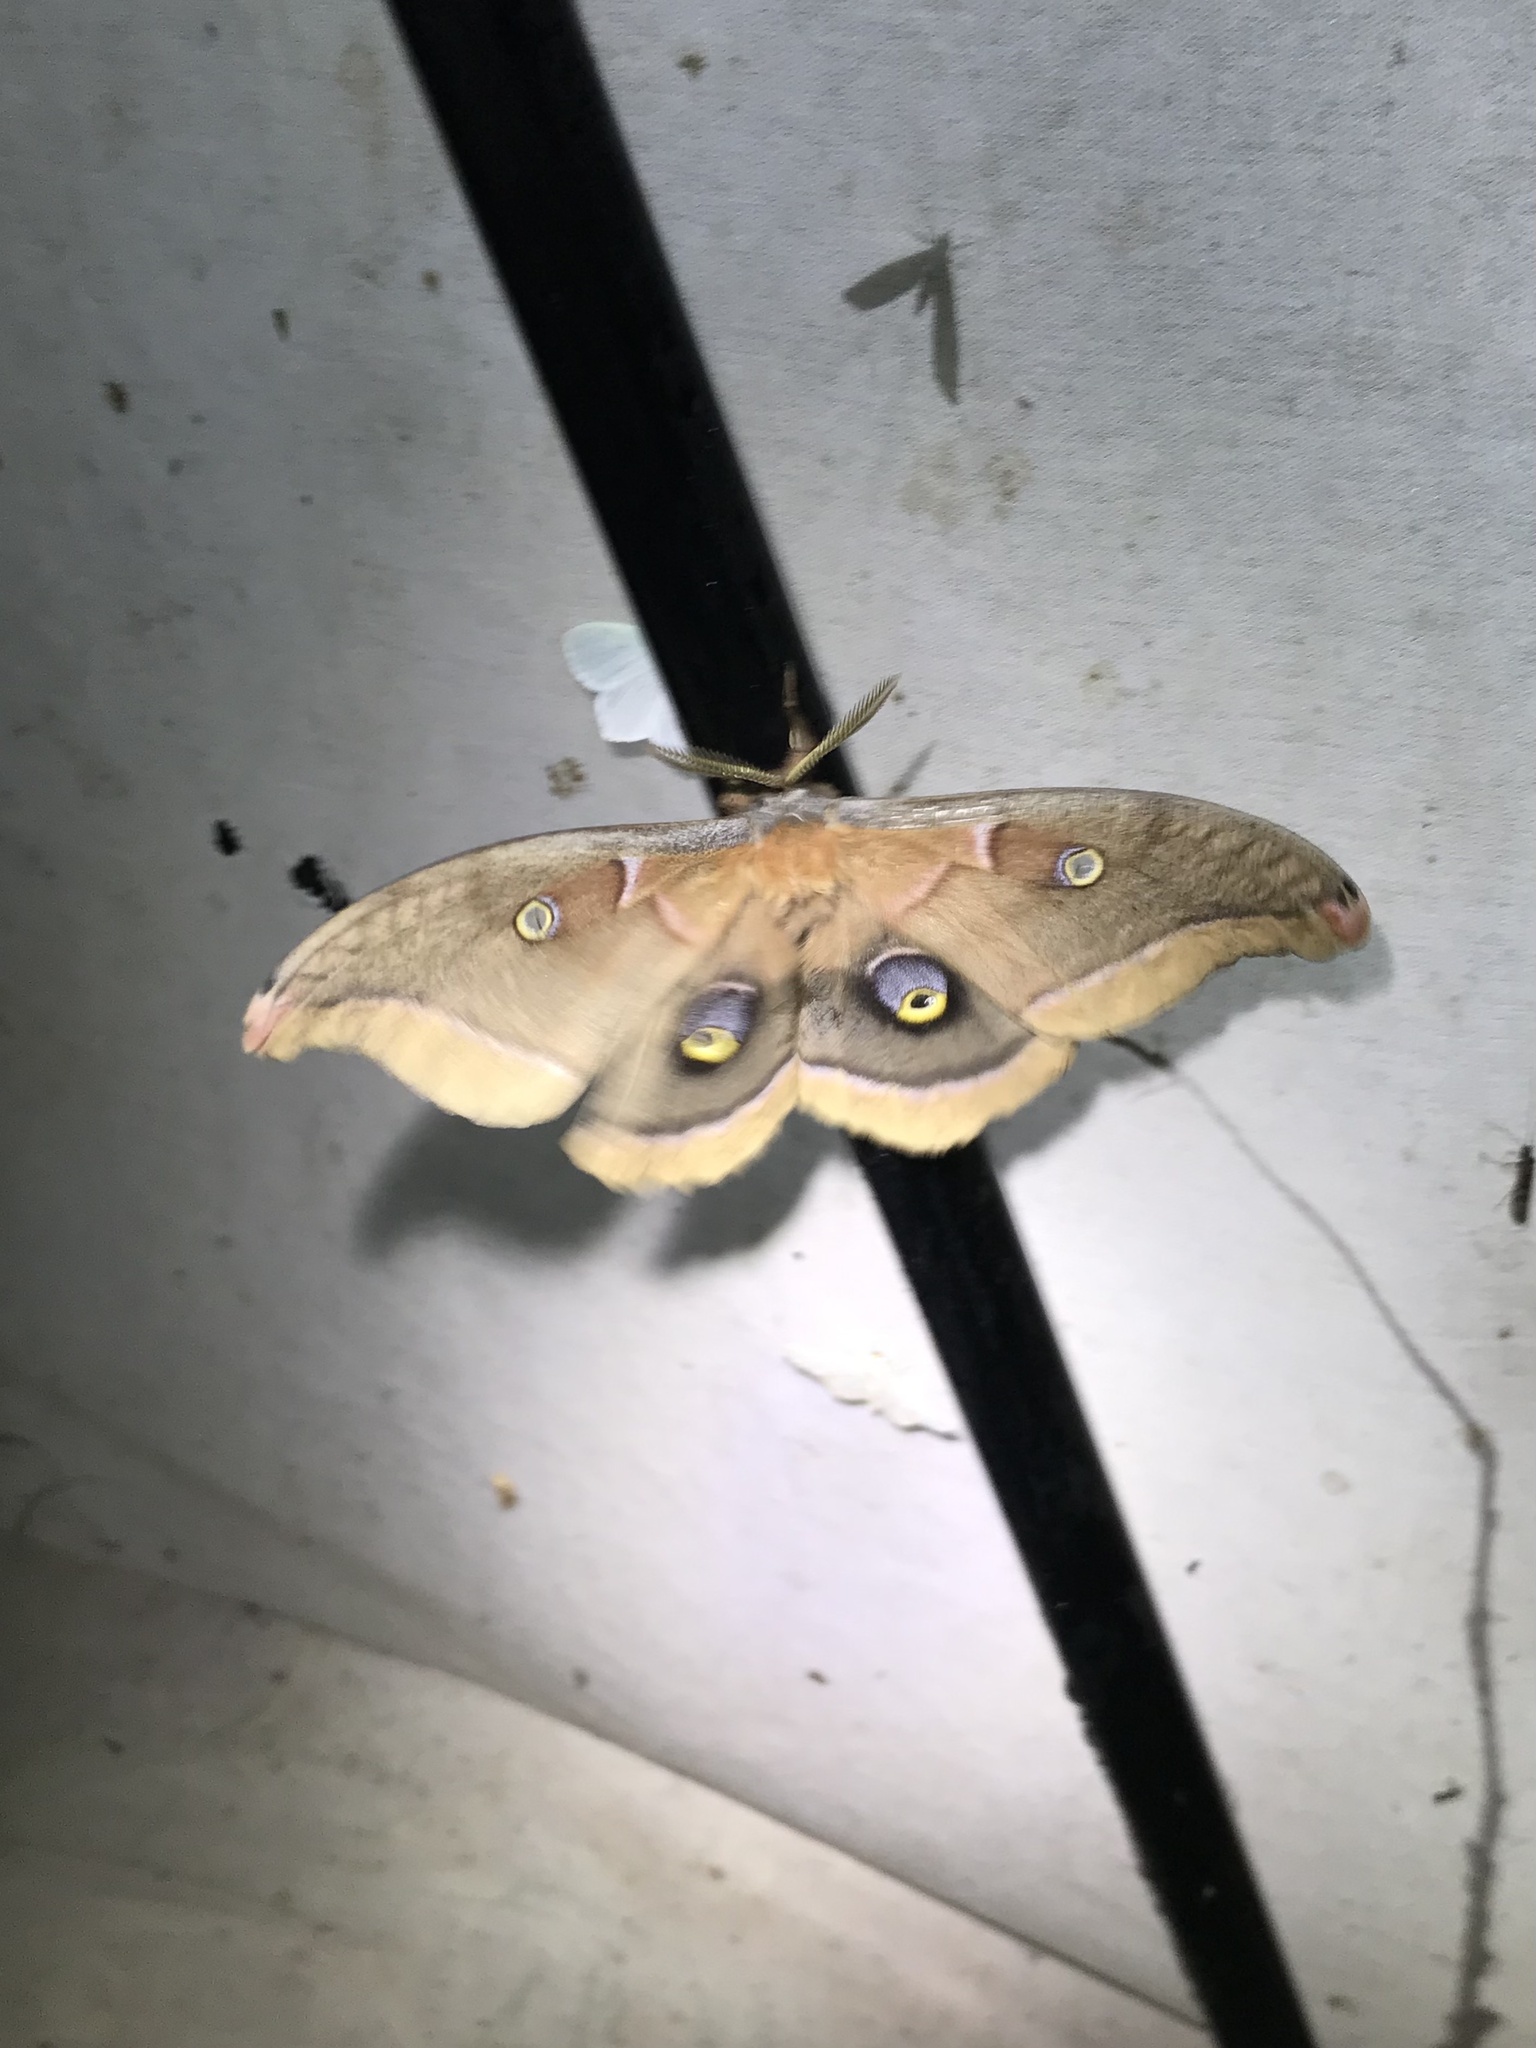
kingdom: Animalia
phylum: Arthropoda
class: Insecta
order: Lepidoptera
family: Saturniidae
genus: Antheraea
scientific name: Antheraea polyphemus
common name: Polyphemus moth
